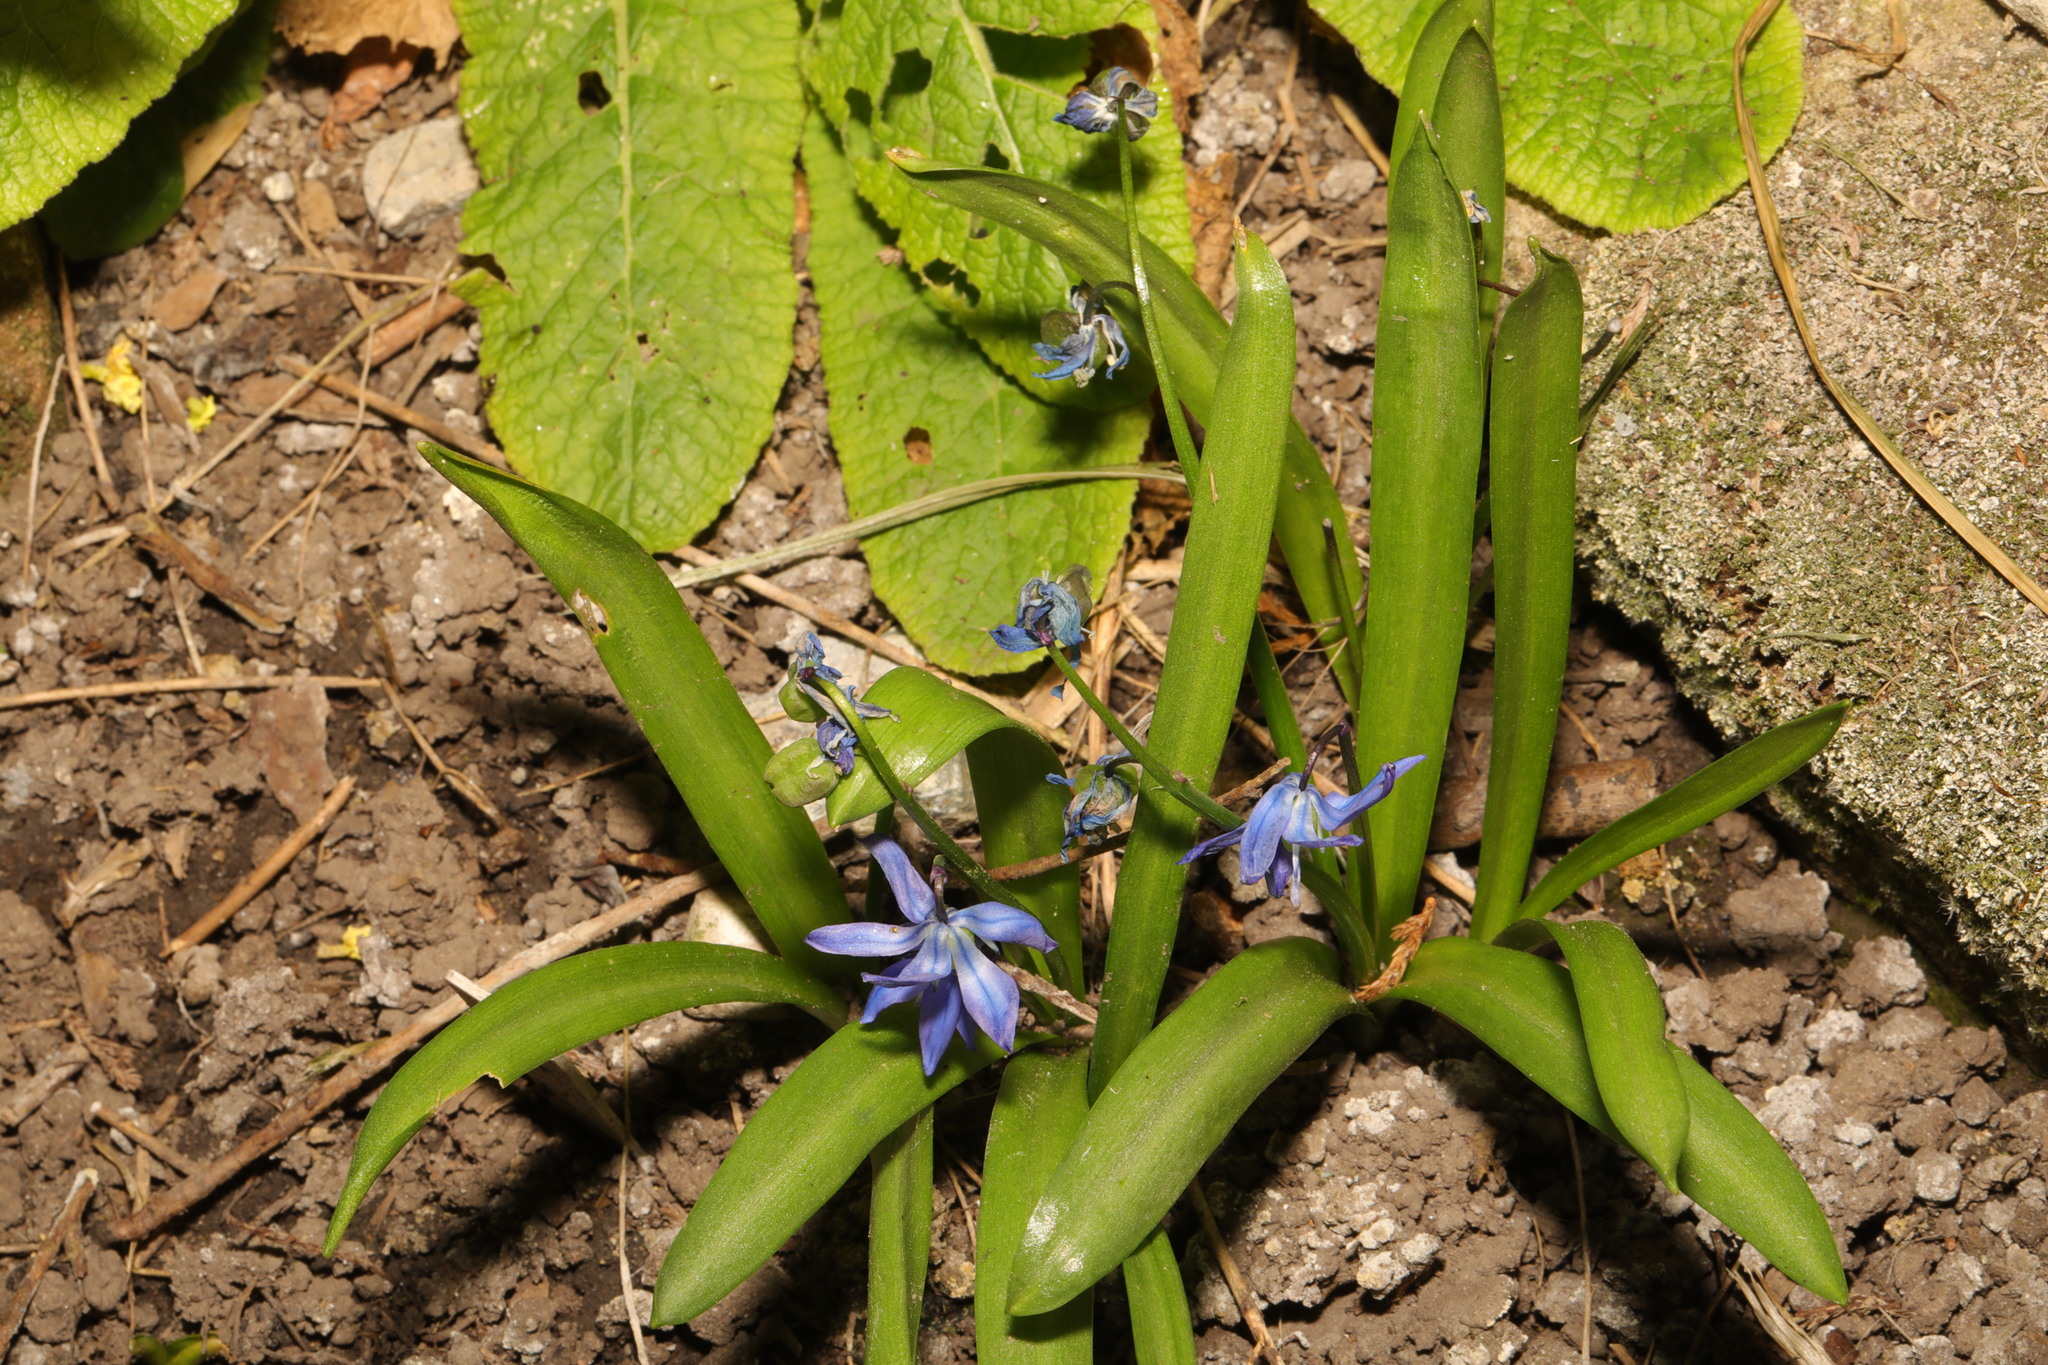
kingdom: Plantae
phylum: Tracheophyta
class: Liliopsida
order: Asparagales
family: Asparagaceae
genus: Scilla
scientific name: Scilla siberica
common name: Siberian squill
